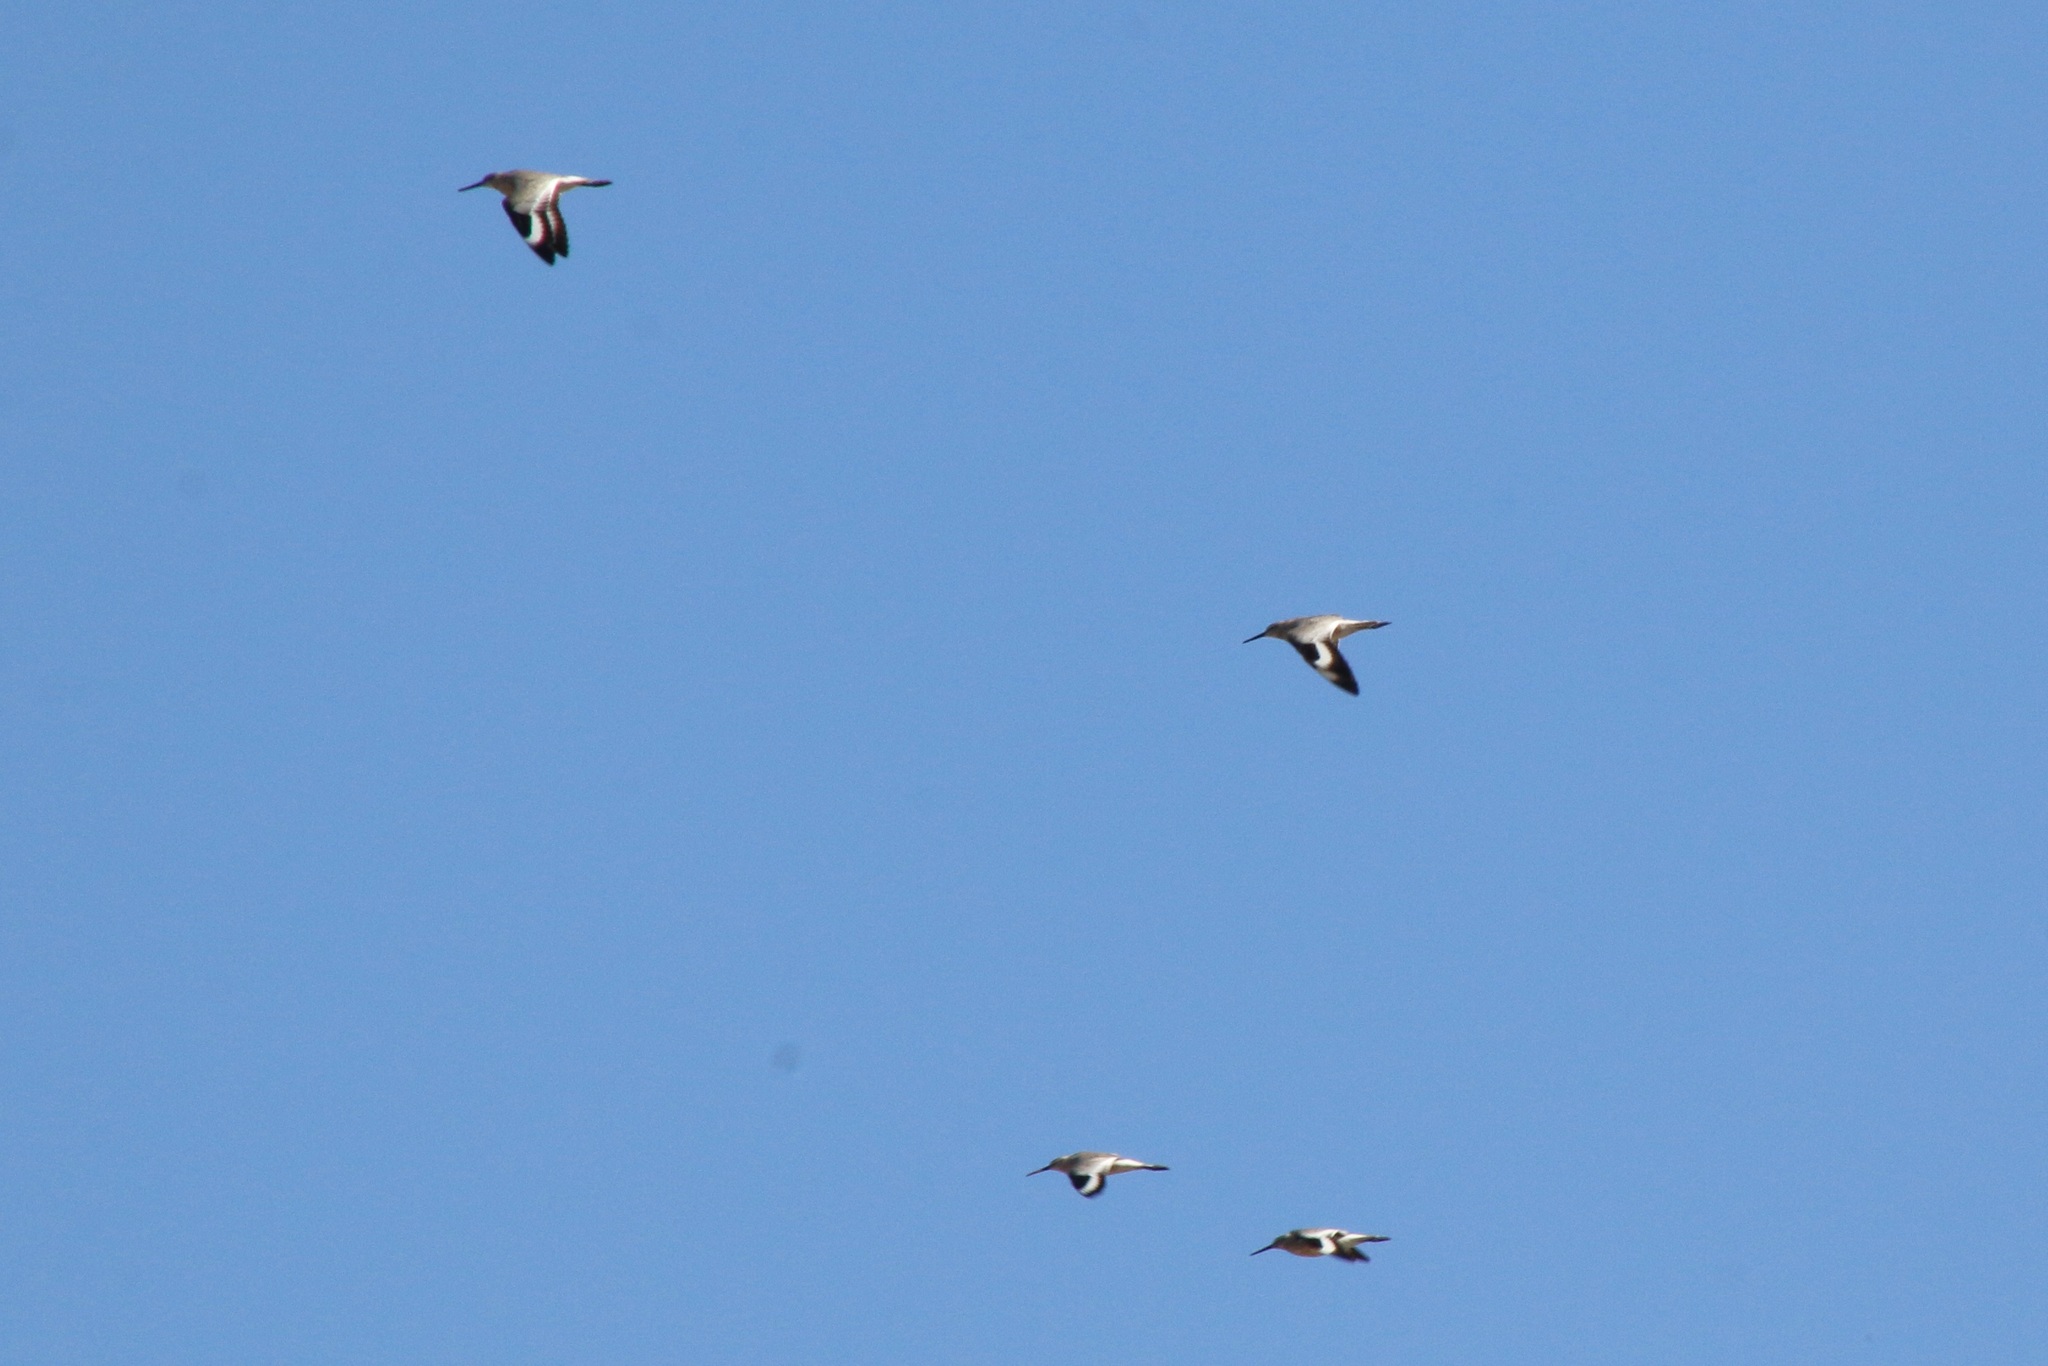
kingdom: Animalia
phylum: Chordata
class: Aves
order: Charadriiformes
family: Scolopacidae
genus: Tringa
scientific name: Tringa semipalmata
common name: Willet
